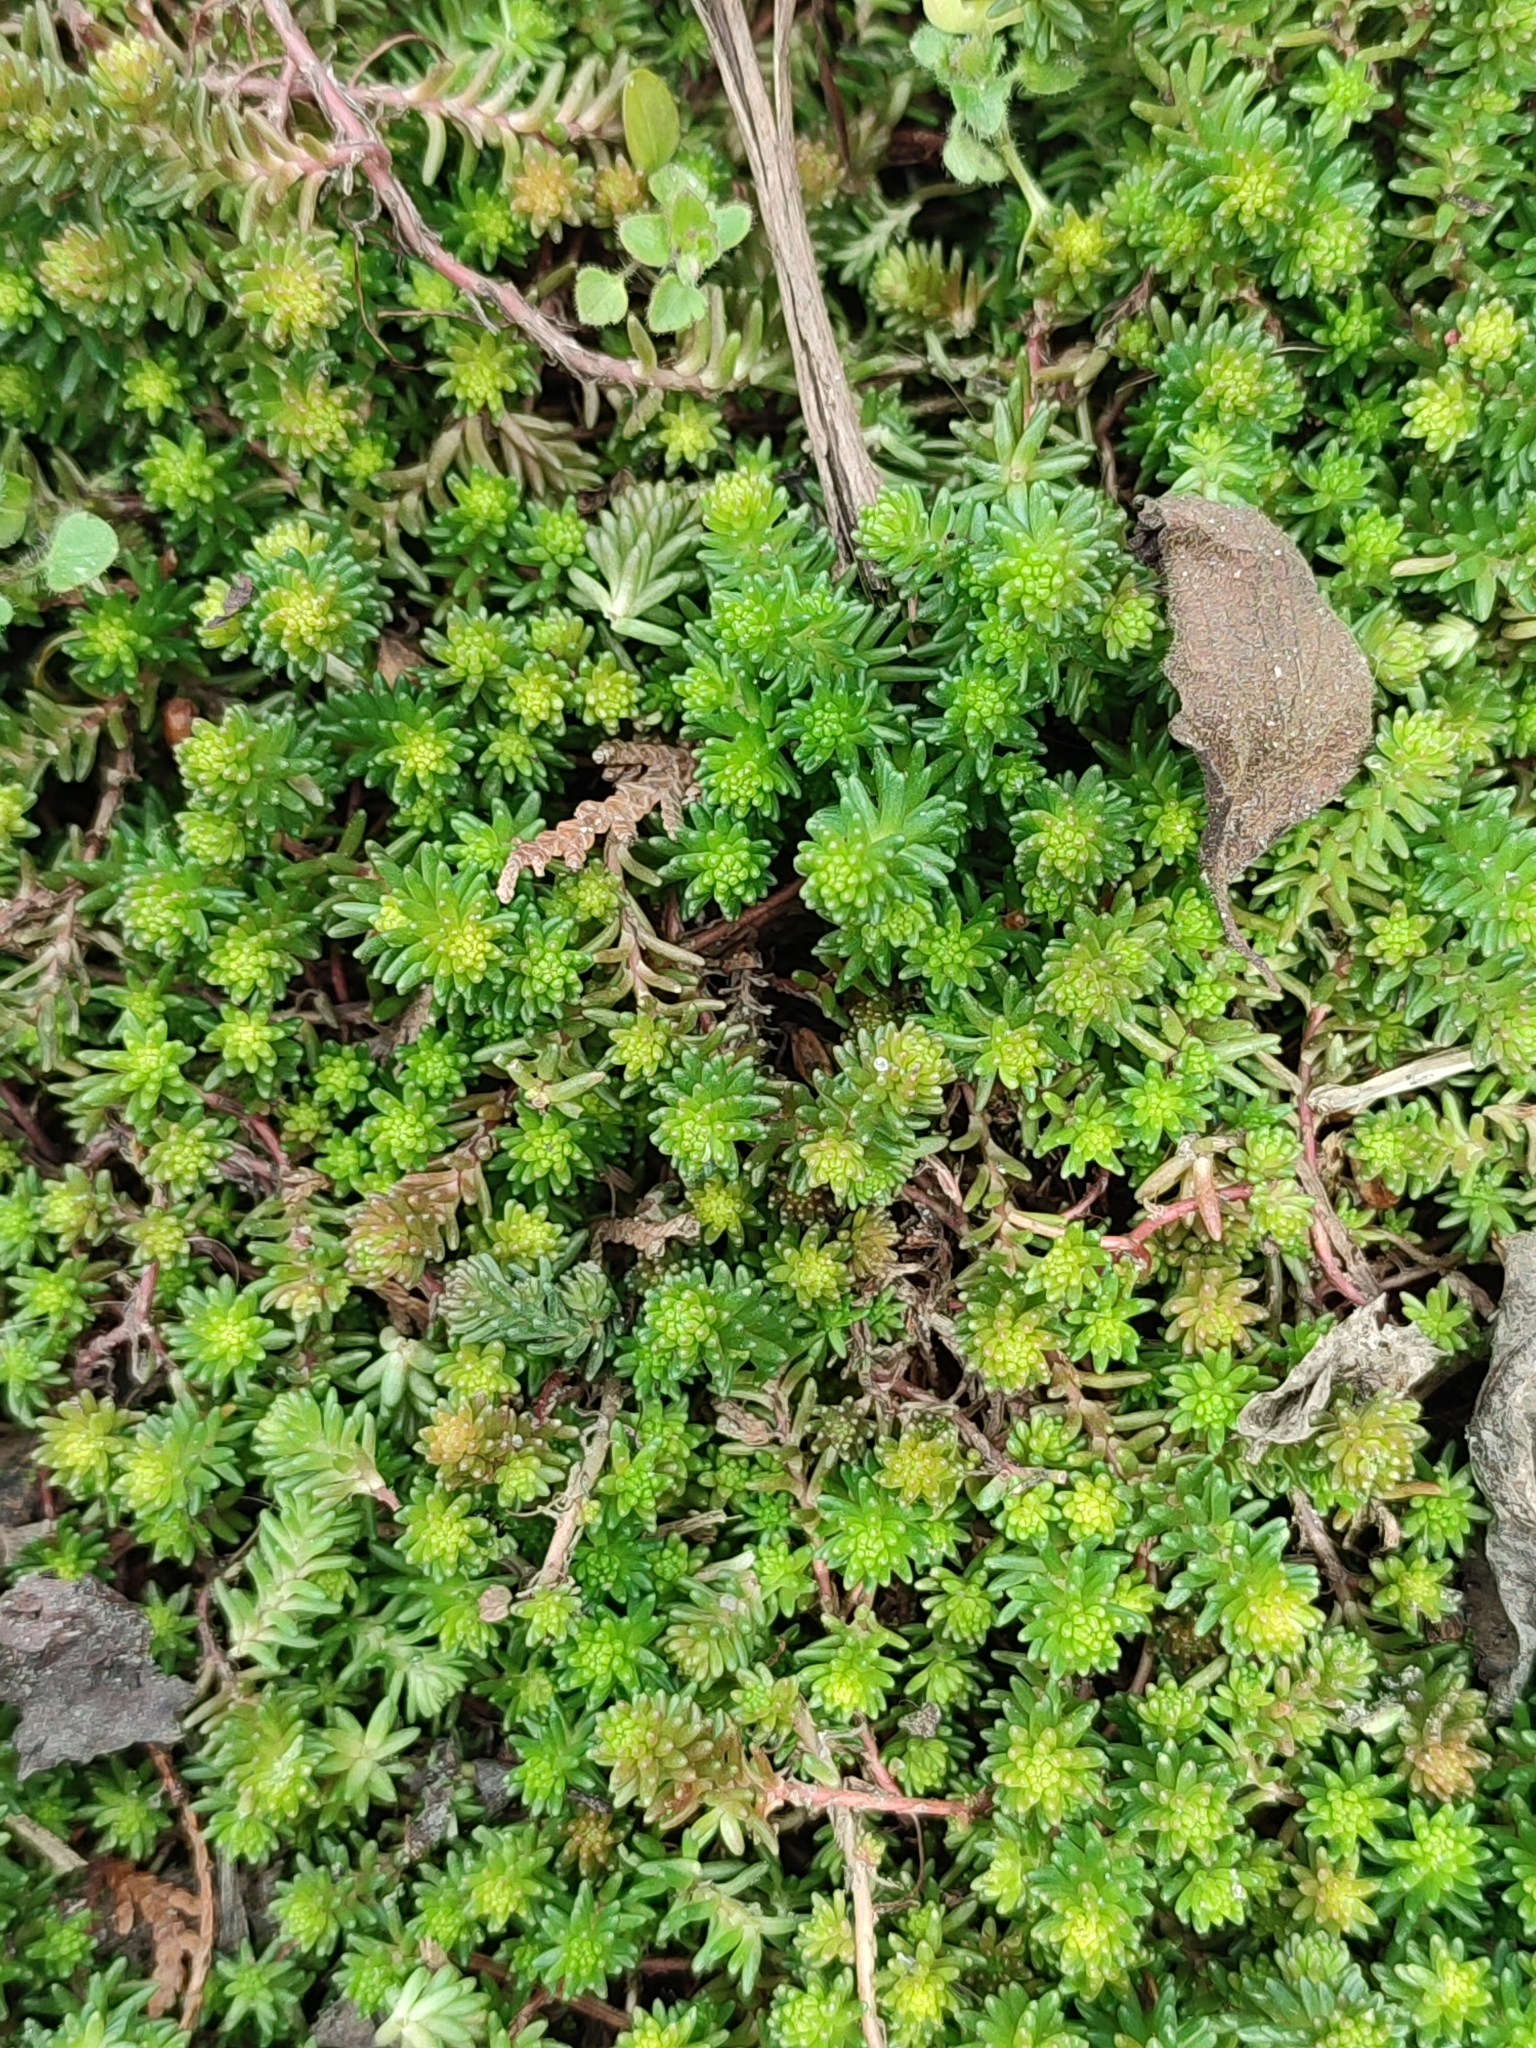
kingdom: Plantae
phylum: Tracheophyta
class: Magnoliopsida
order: Saxifragales
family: Crassulaceae
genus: Sedum
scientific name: Sedum sexangulare
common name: Tasteless stonecrop
